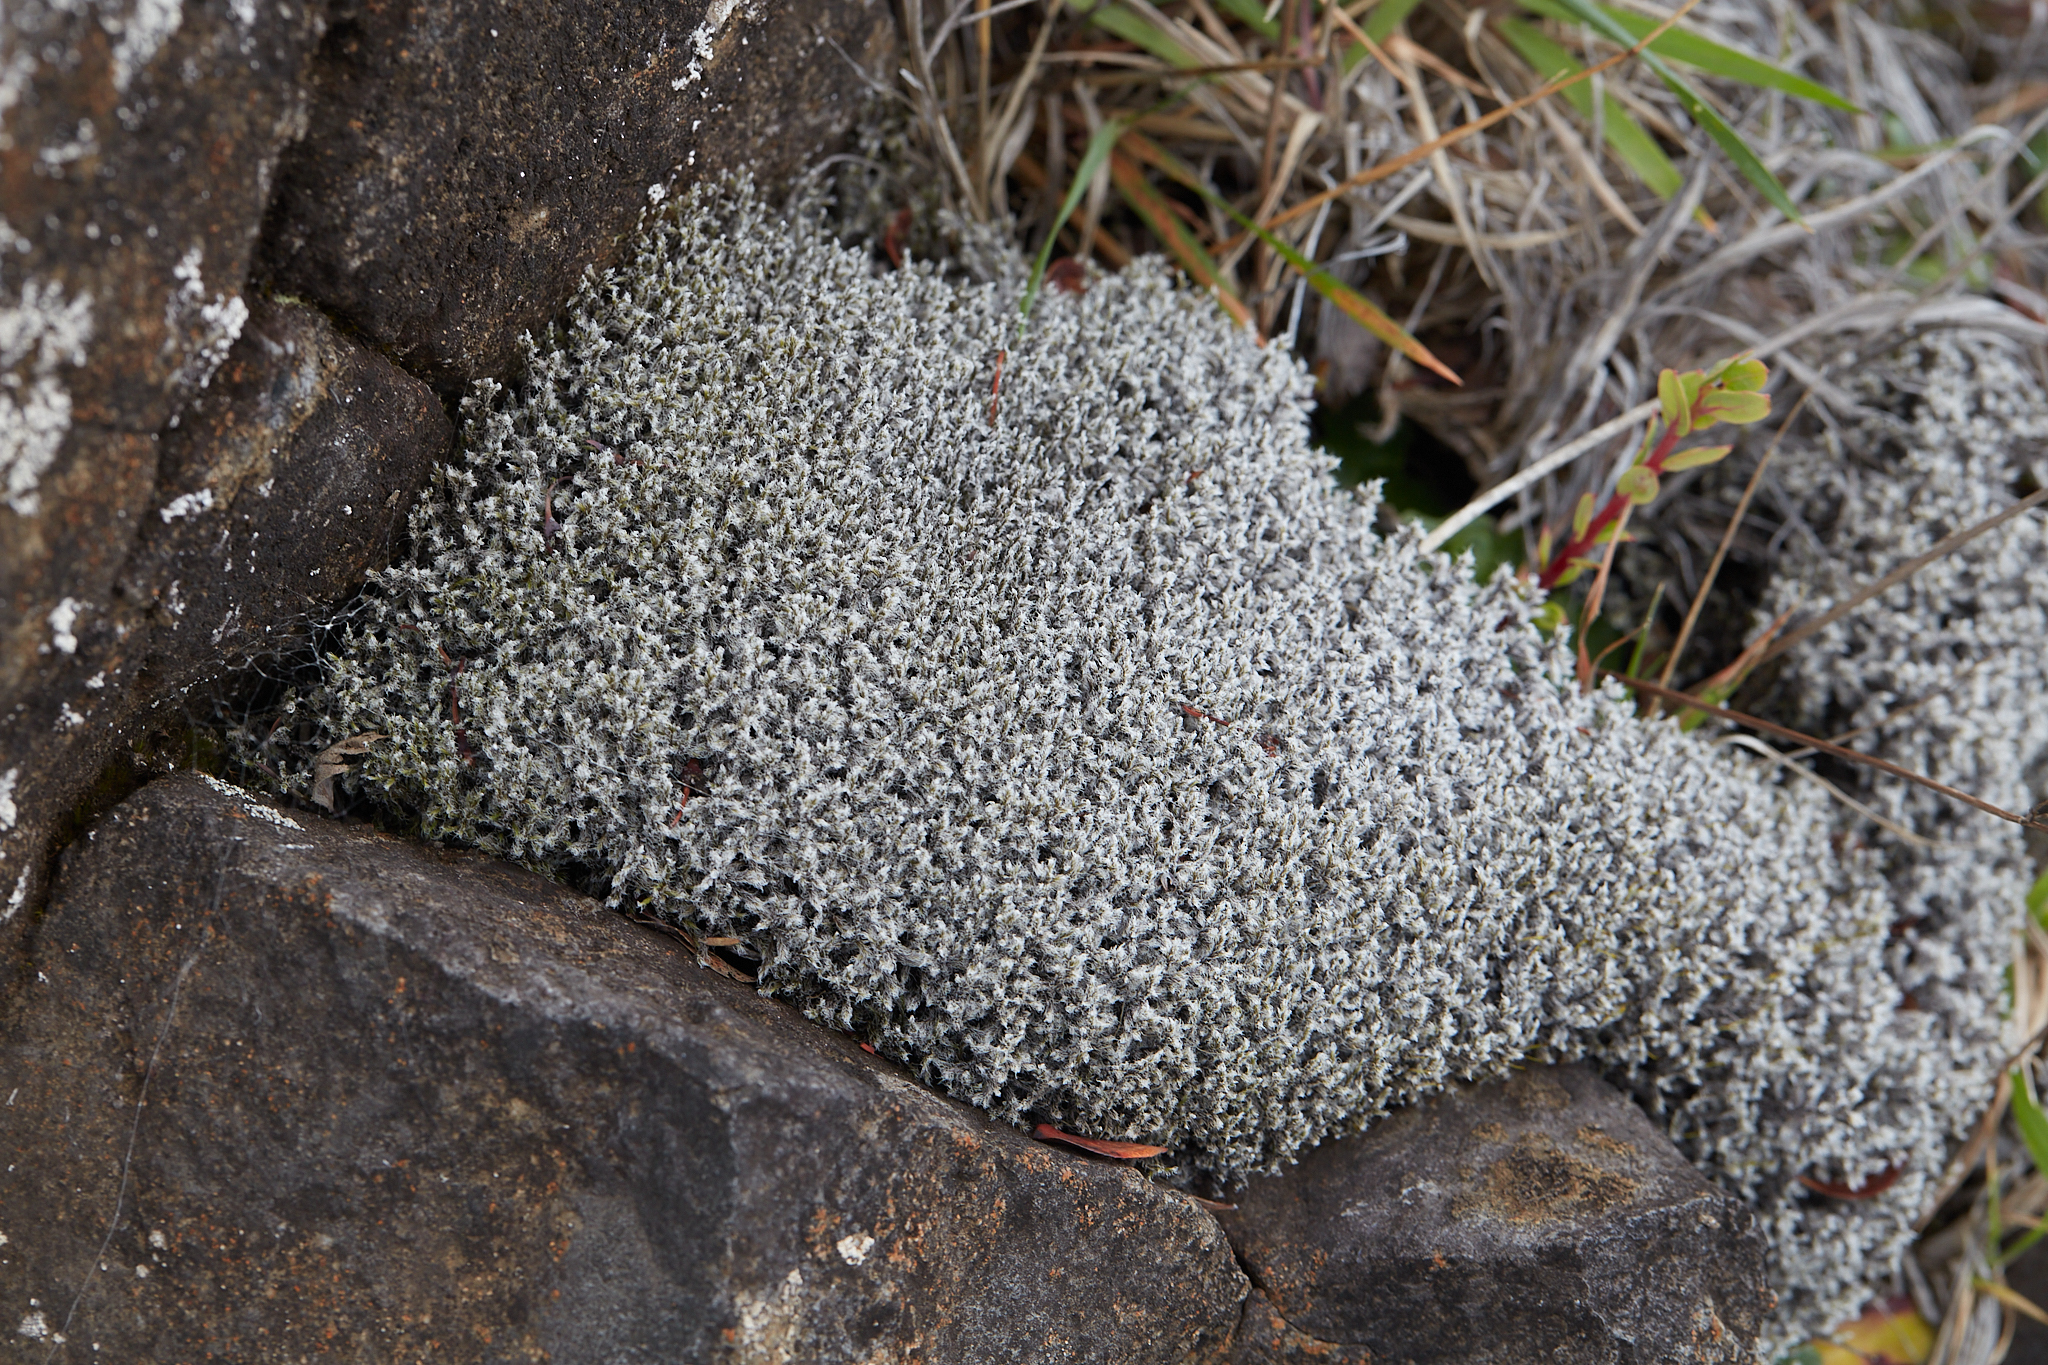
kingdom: Plantae
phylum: Bryophyta
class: Bryopsida
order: Grimmiales
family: Grimmiaceae
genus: Racomitrium
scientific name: Racomitrium lanuginosum
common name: Hoary rock moss
